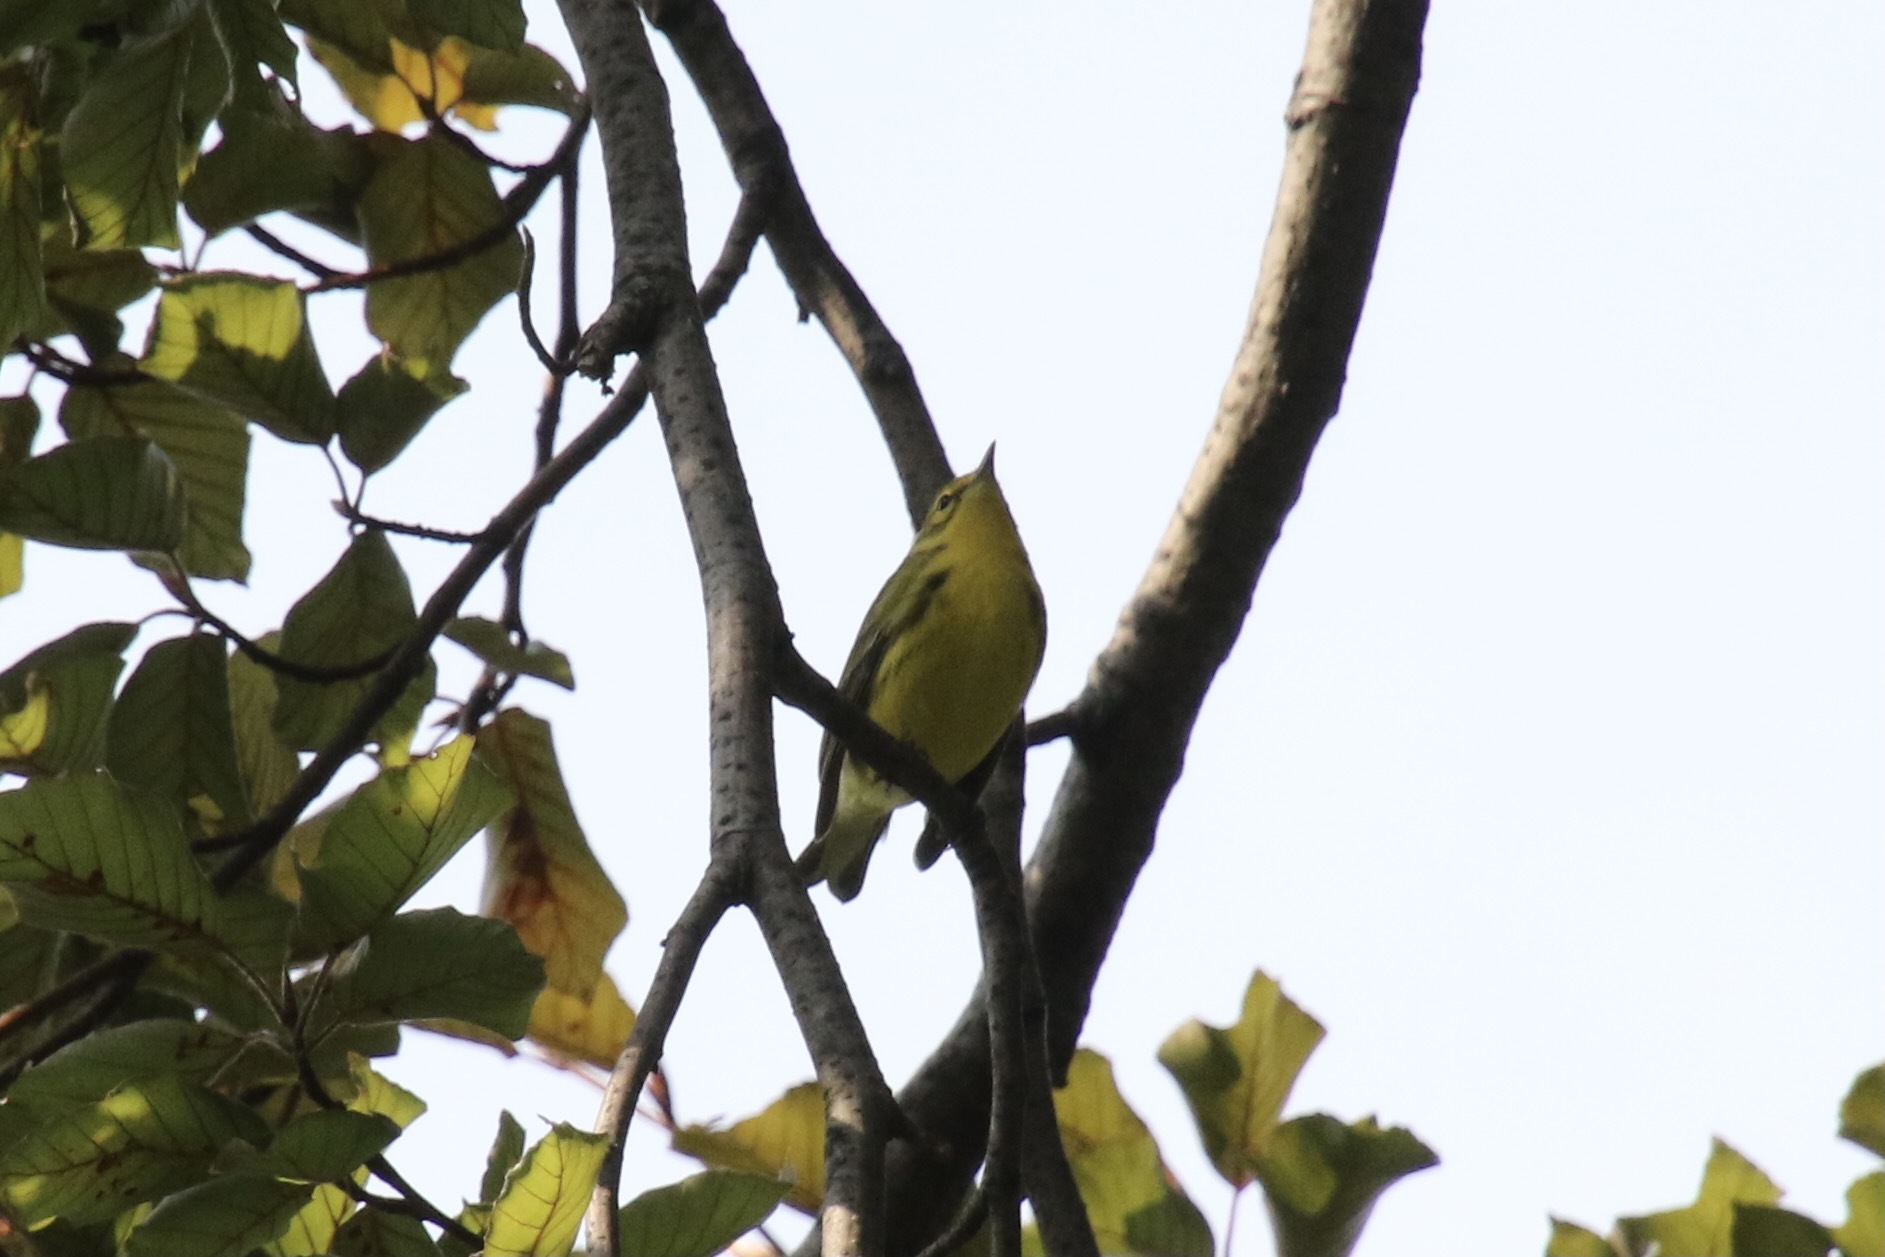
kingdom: Animalia
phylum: Chordata
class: Aves
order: Passeriformes
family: Parulidae
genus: Setophaga
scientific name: Setophaga discolor
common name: Prairie warbler
